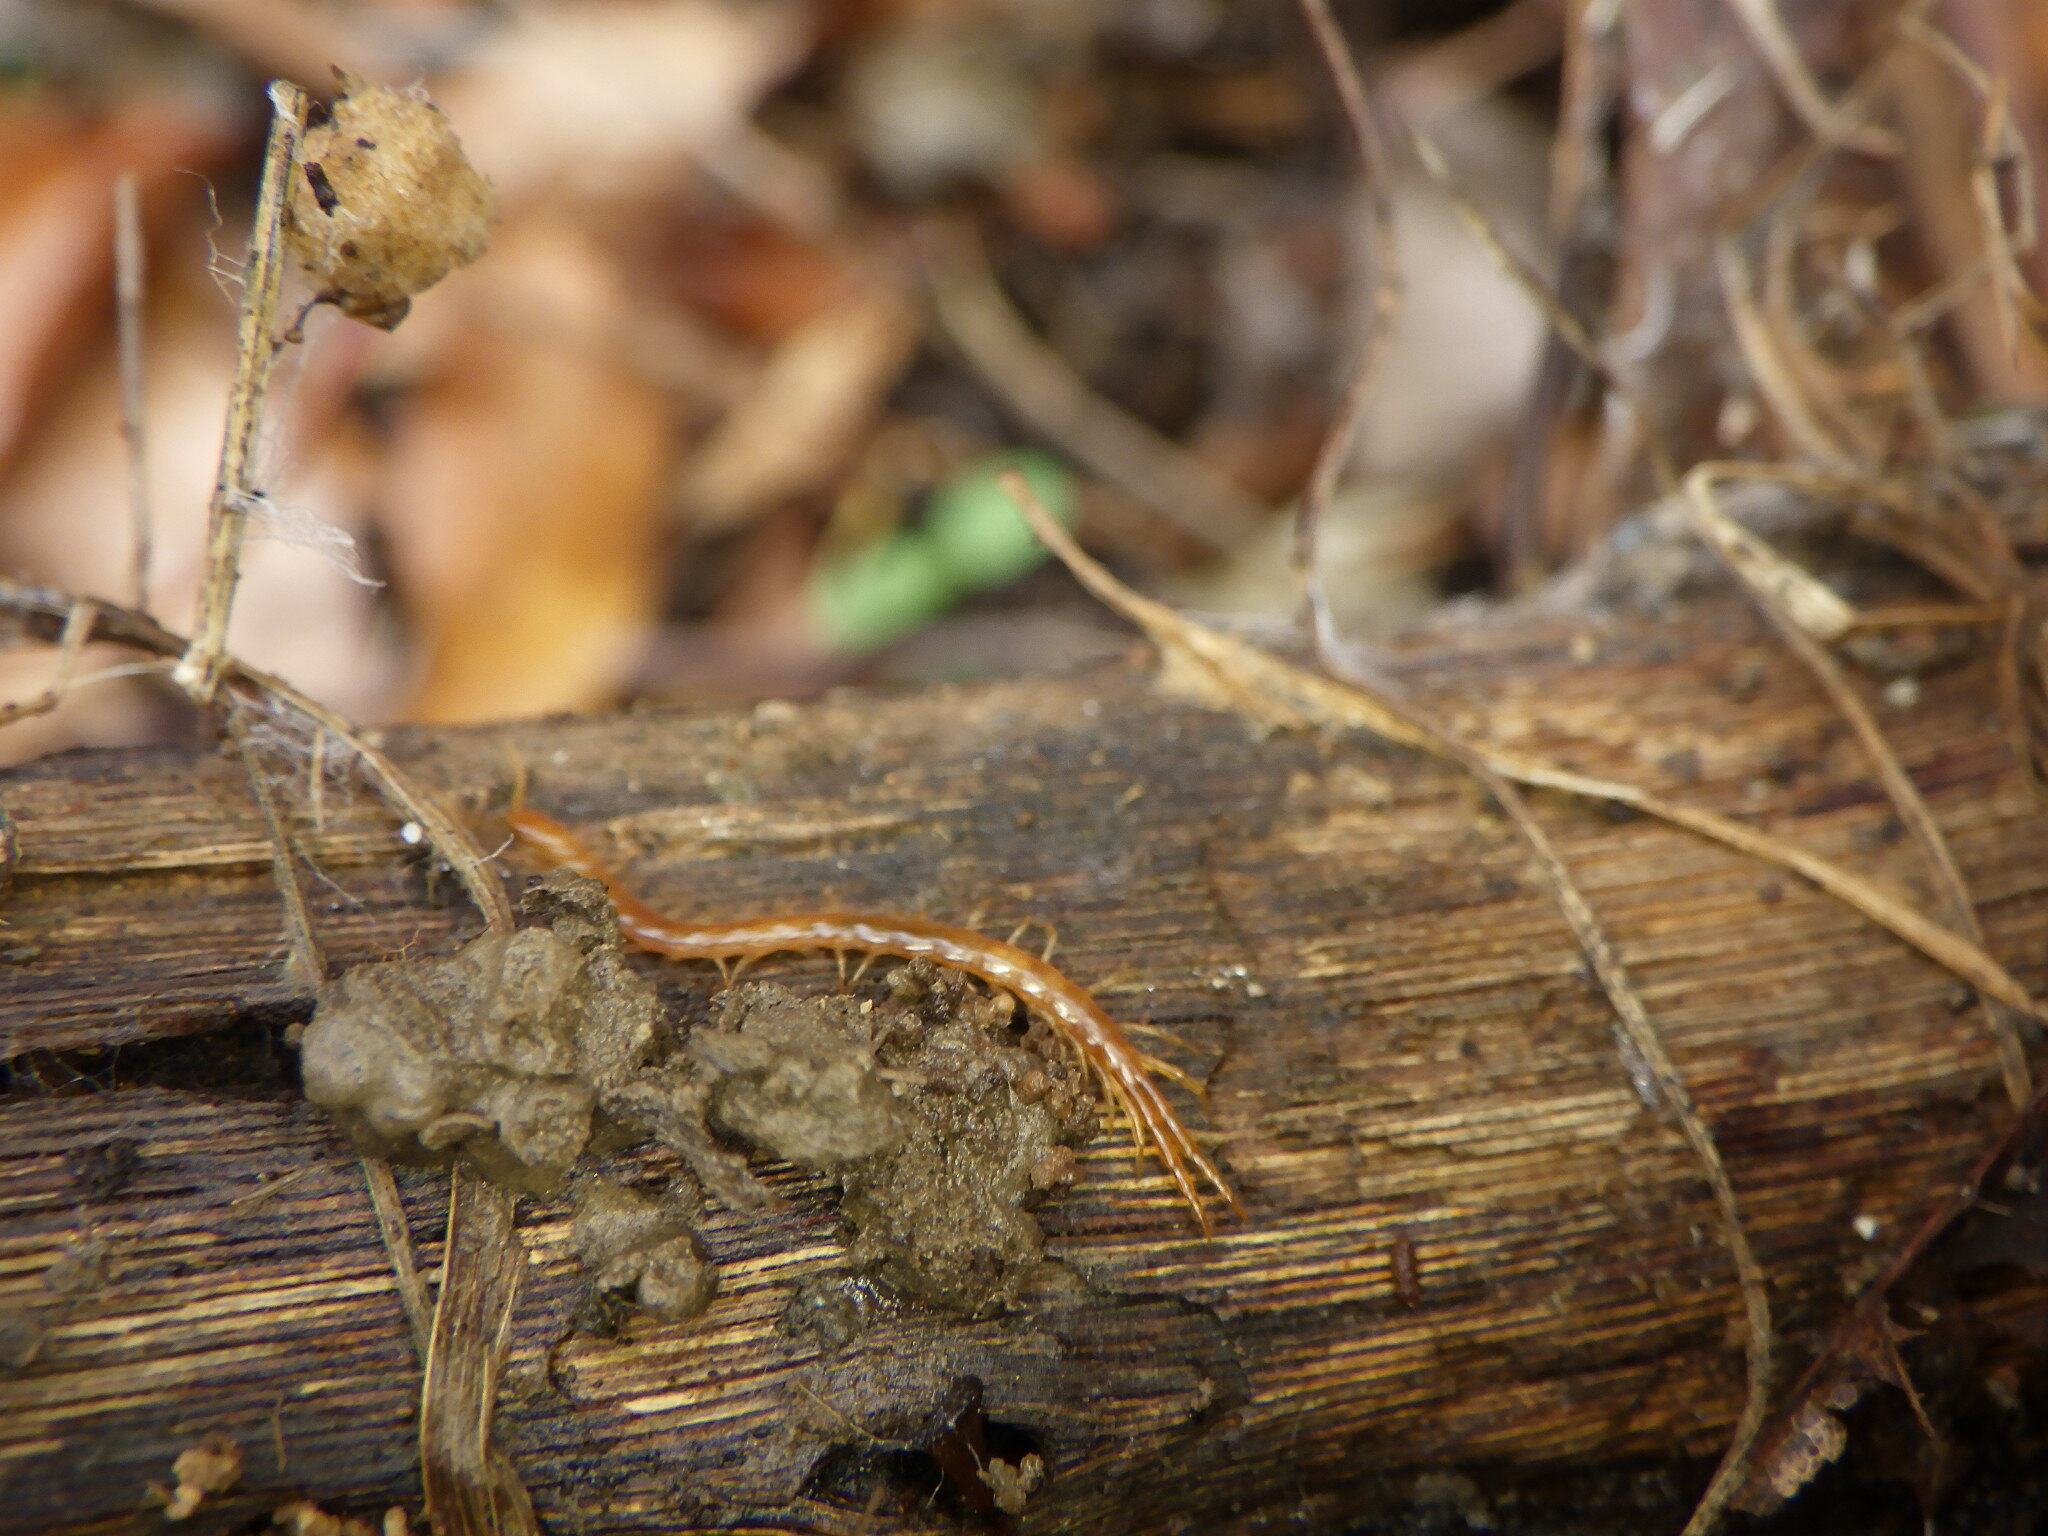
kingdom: Animalia
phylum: Arthropoda
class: Chilopoda
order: Scolopendromorpha
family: Cryptopidae
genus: Cryptops
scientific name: Cryptops
